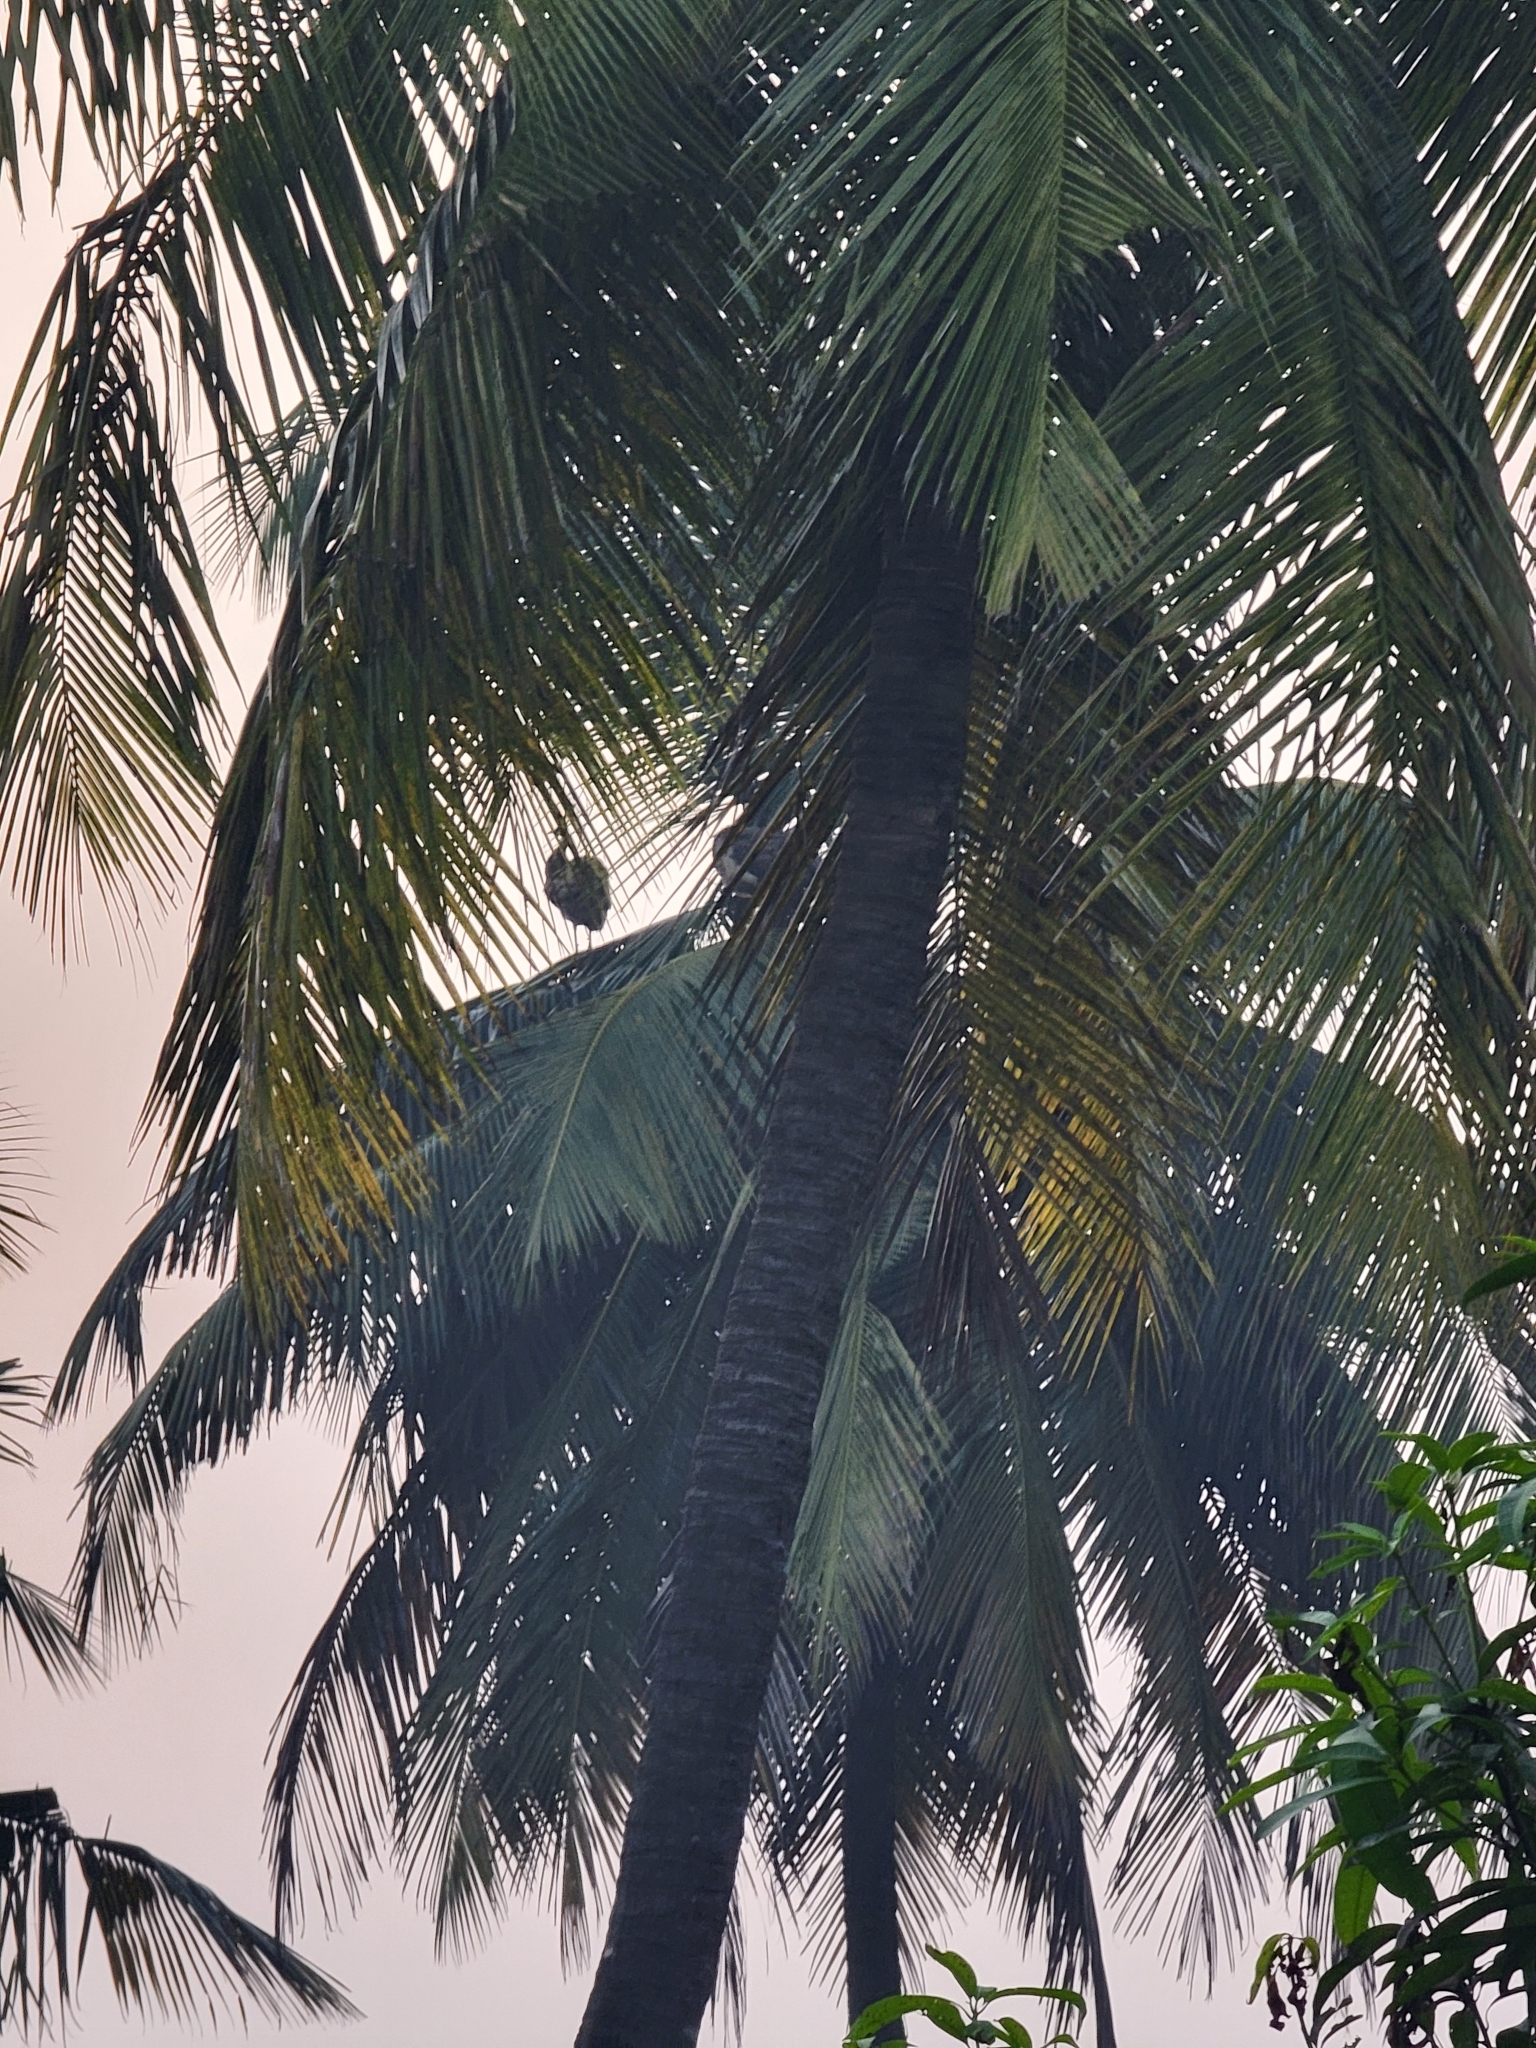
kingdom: Animalia
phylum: Chordata
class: Aves
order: Galliformes
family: Phasianidae
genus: Pavo
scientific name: Pavo cristatus
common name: Indian peafowl
